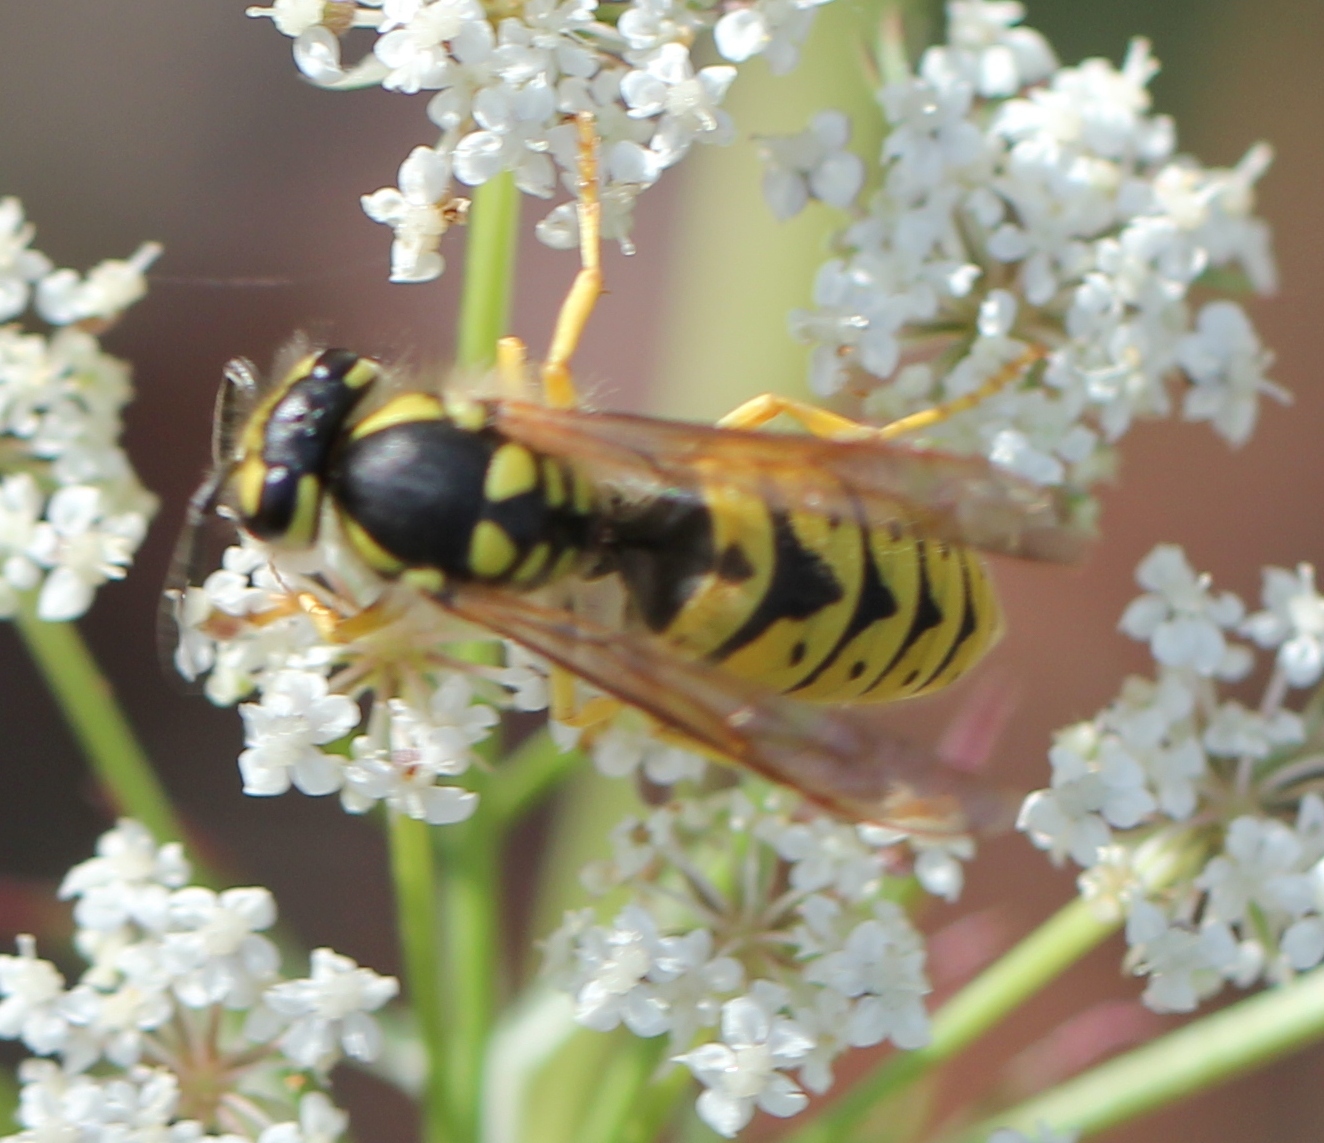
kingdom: Animalia
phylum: Arthropoda
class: Insecta
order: Hymenoptera
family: Vespidae
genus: Vespula
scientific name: Vespula germanica
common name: German wasp
